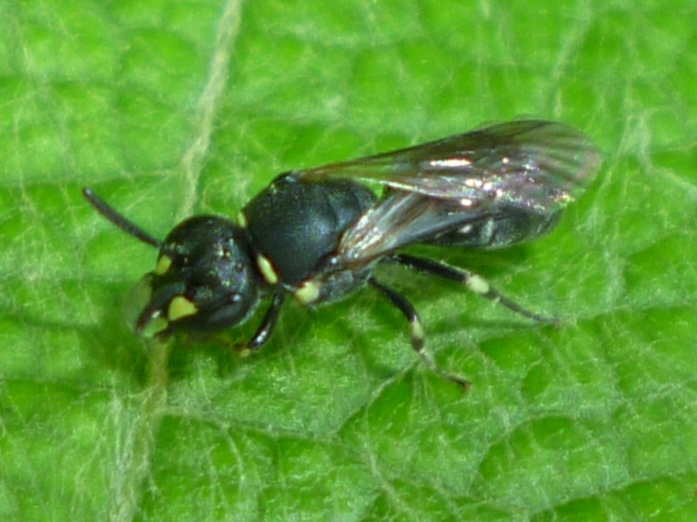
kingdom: Animalia
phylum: Arthropoda
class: Insecta
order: Hymenoptera
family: Colletidae
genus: Hylaeus
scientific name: Hylaeus modestus
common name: Yellow-faced bee
